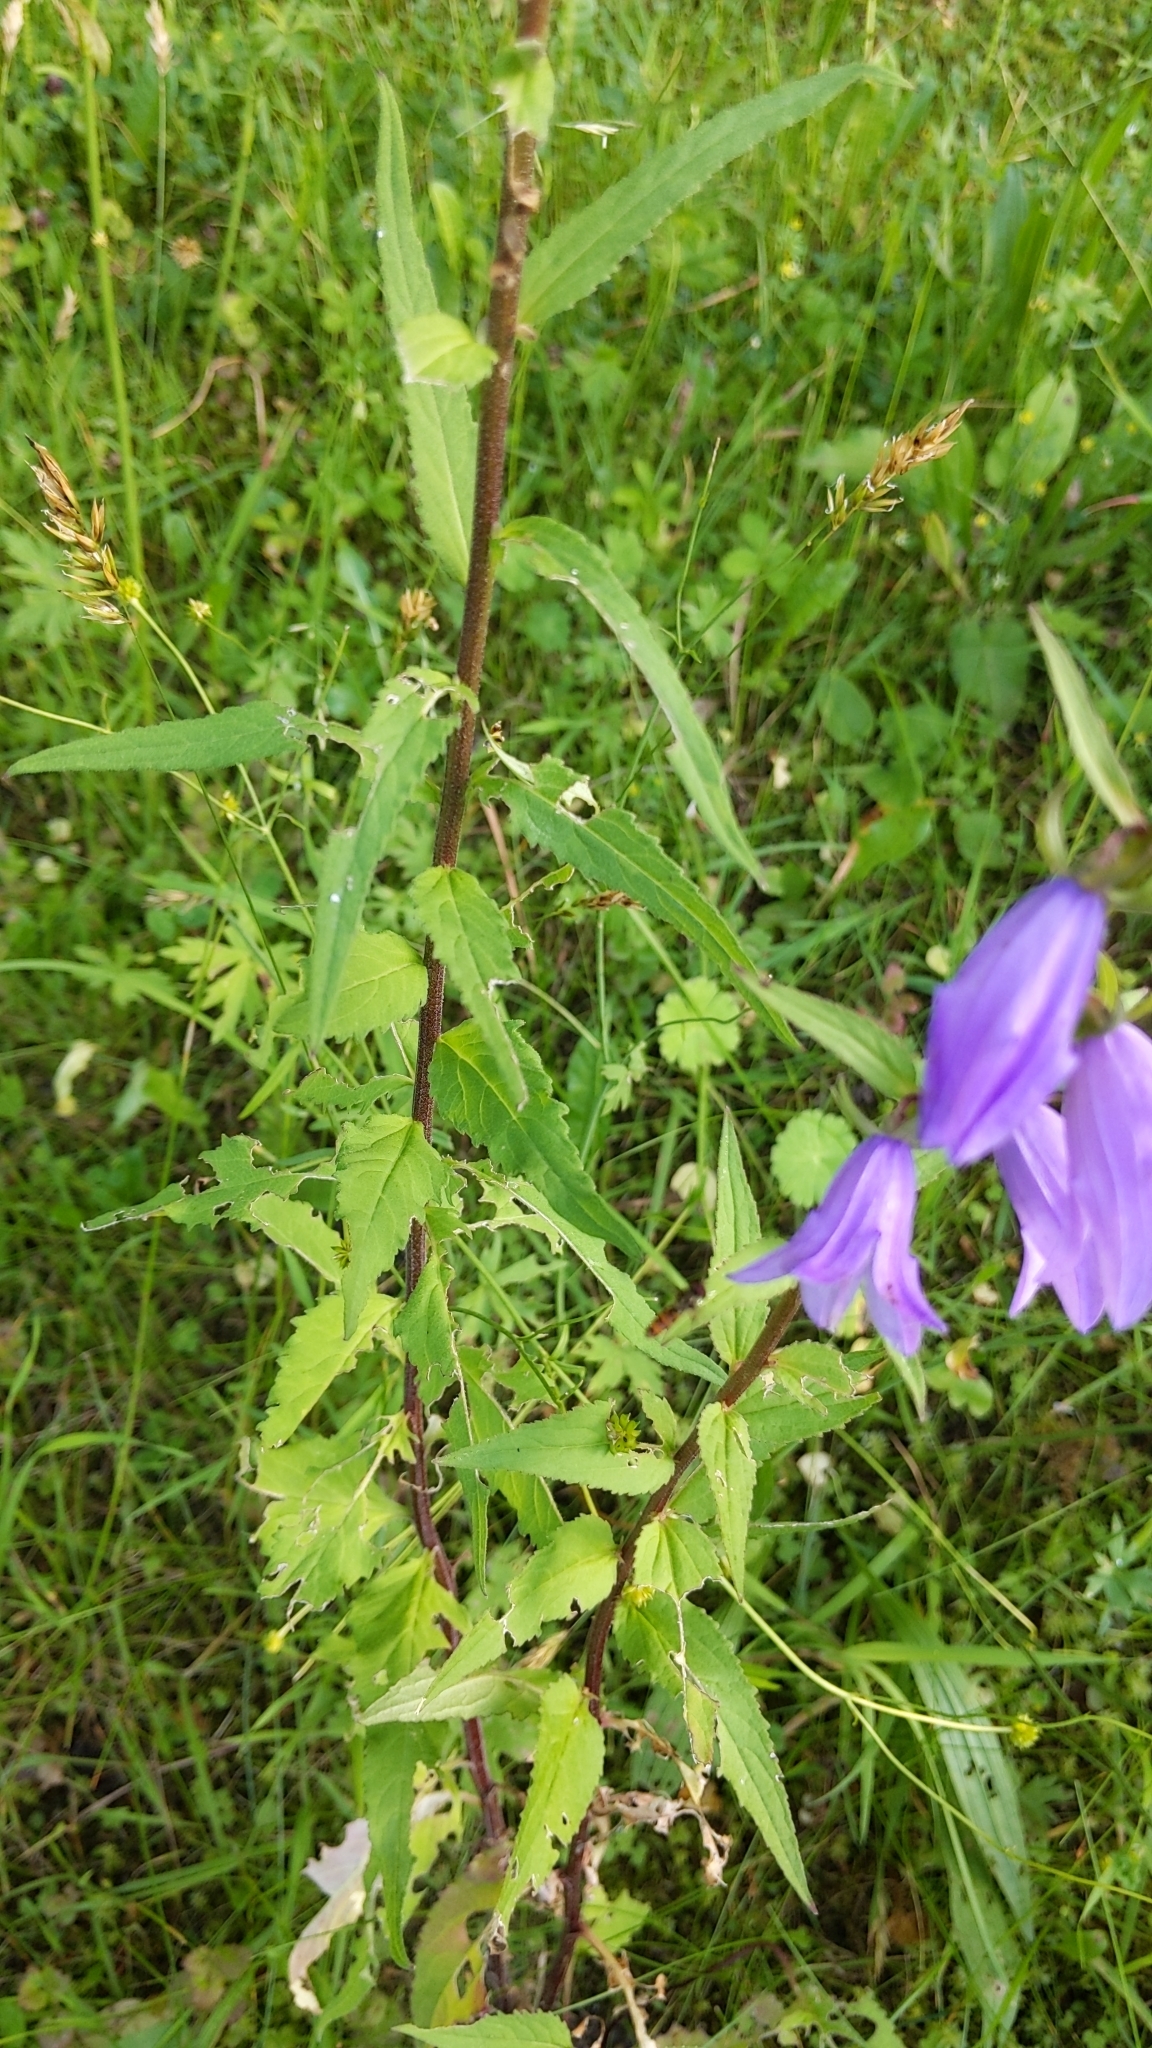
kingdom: Plantae
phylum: Tracheophyta
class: Magnoliopsida
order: Asterales
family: Campanulaceae
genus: Campanula
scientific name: Campanula rapunculoides
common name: Creeping bellflower
